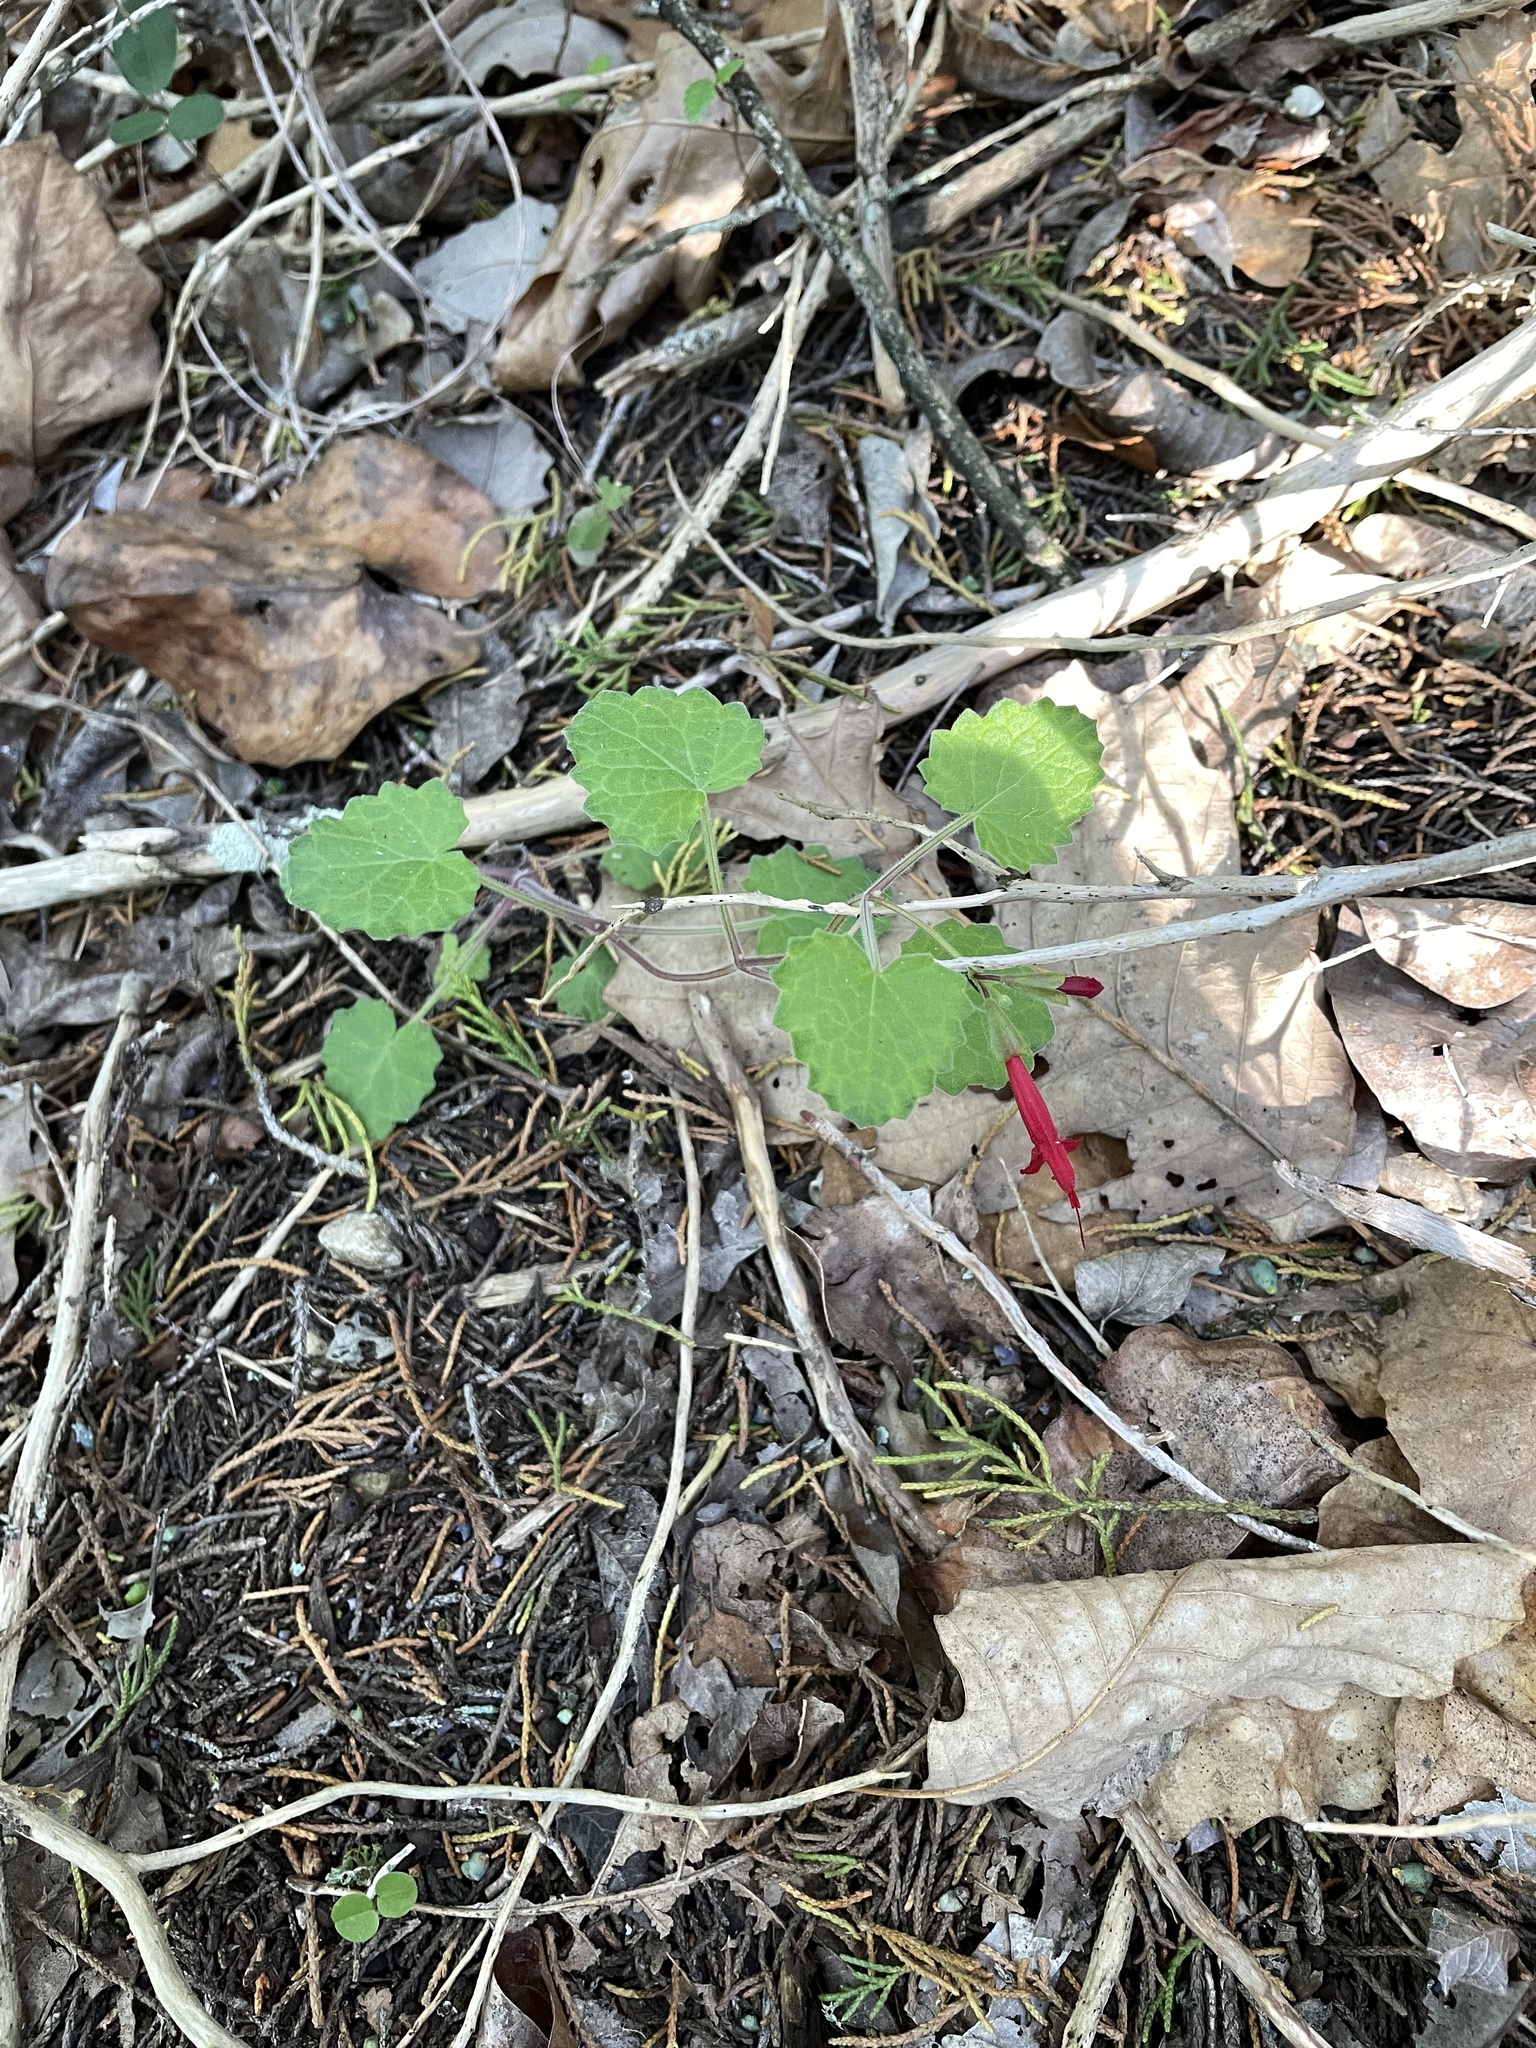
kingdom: Plantae
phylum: Tracheophyta
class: Magnoliopsida
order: Lamiales
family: Lamiaceae
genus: Salvia
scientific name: Salvia roemeriana
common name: Cedar sage
